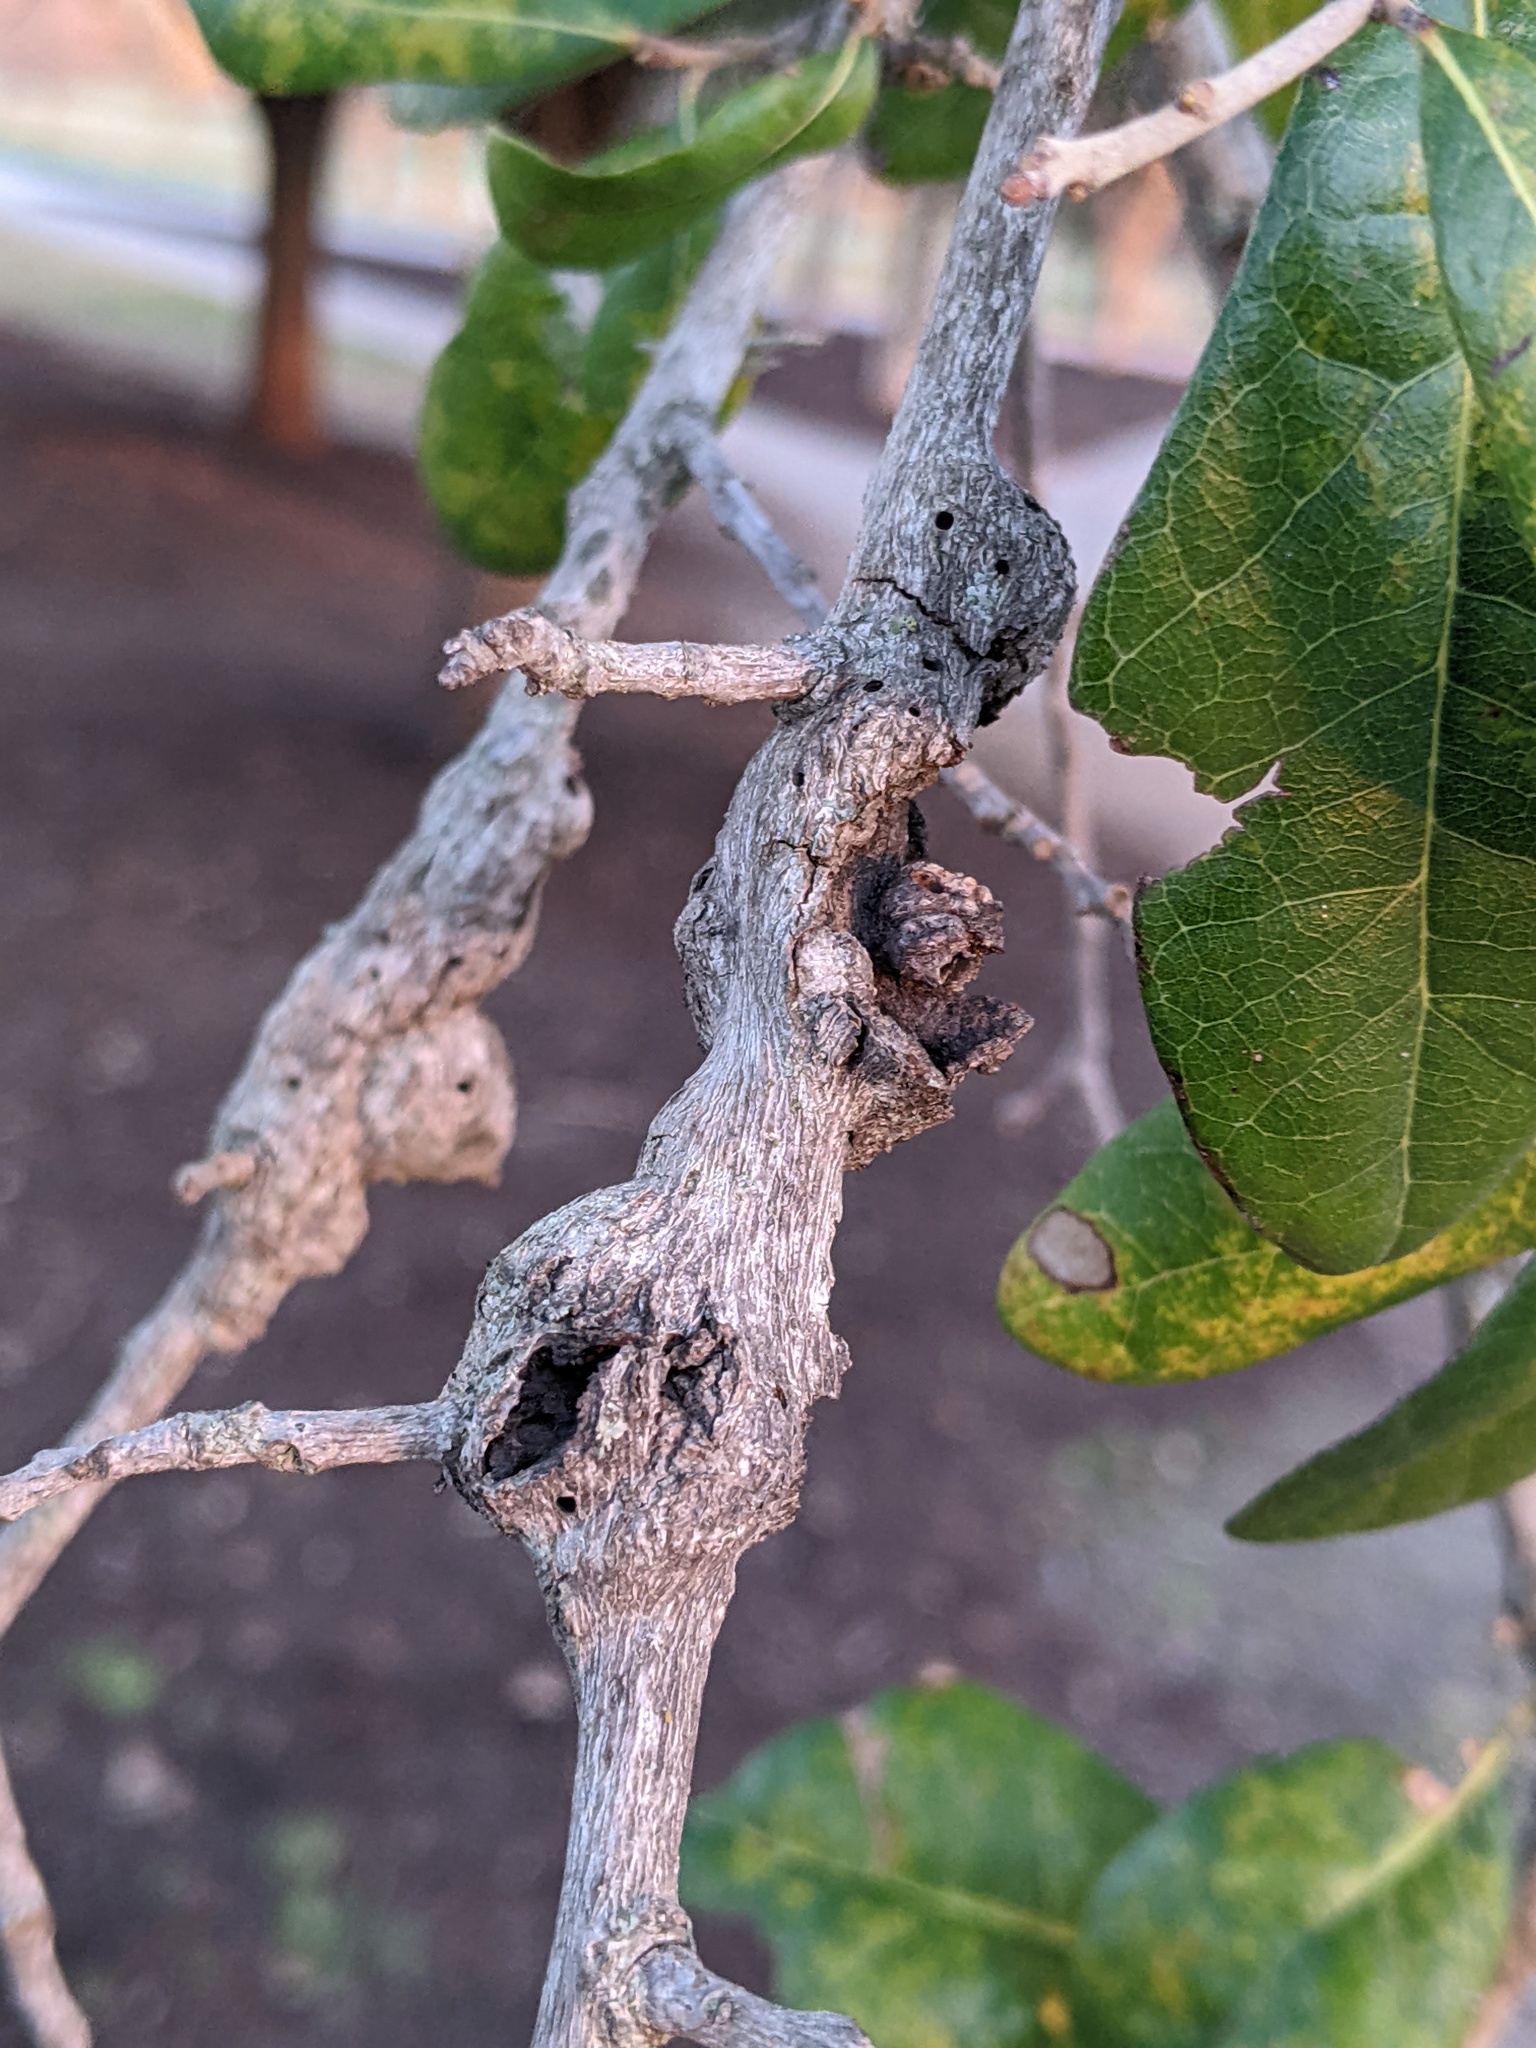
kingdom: Animalia
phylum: Arthropoda
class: Insecta
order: Hymenoptera
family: Cynipidae
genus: Callirhytis
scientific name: Callirhytis
